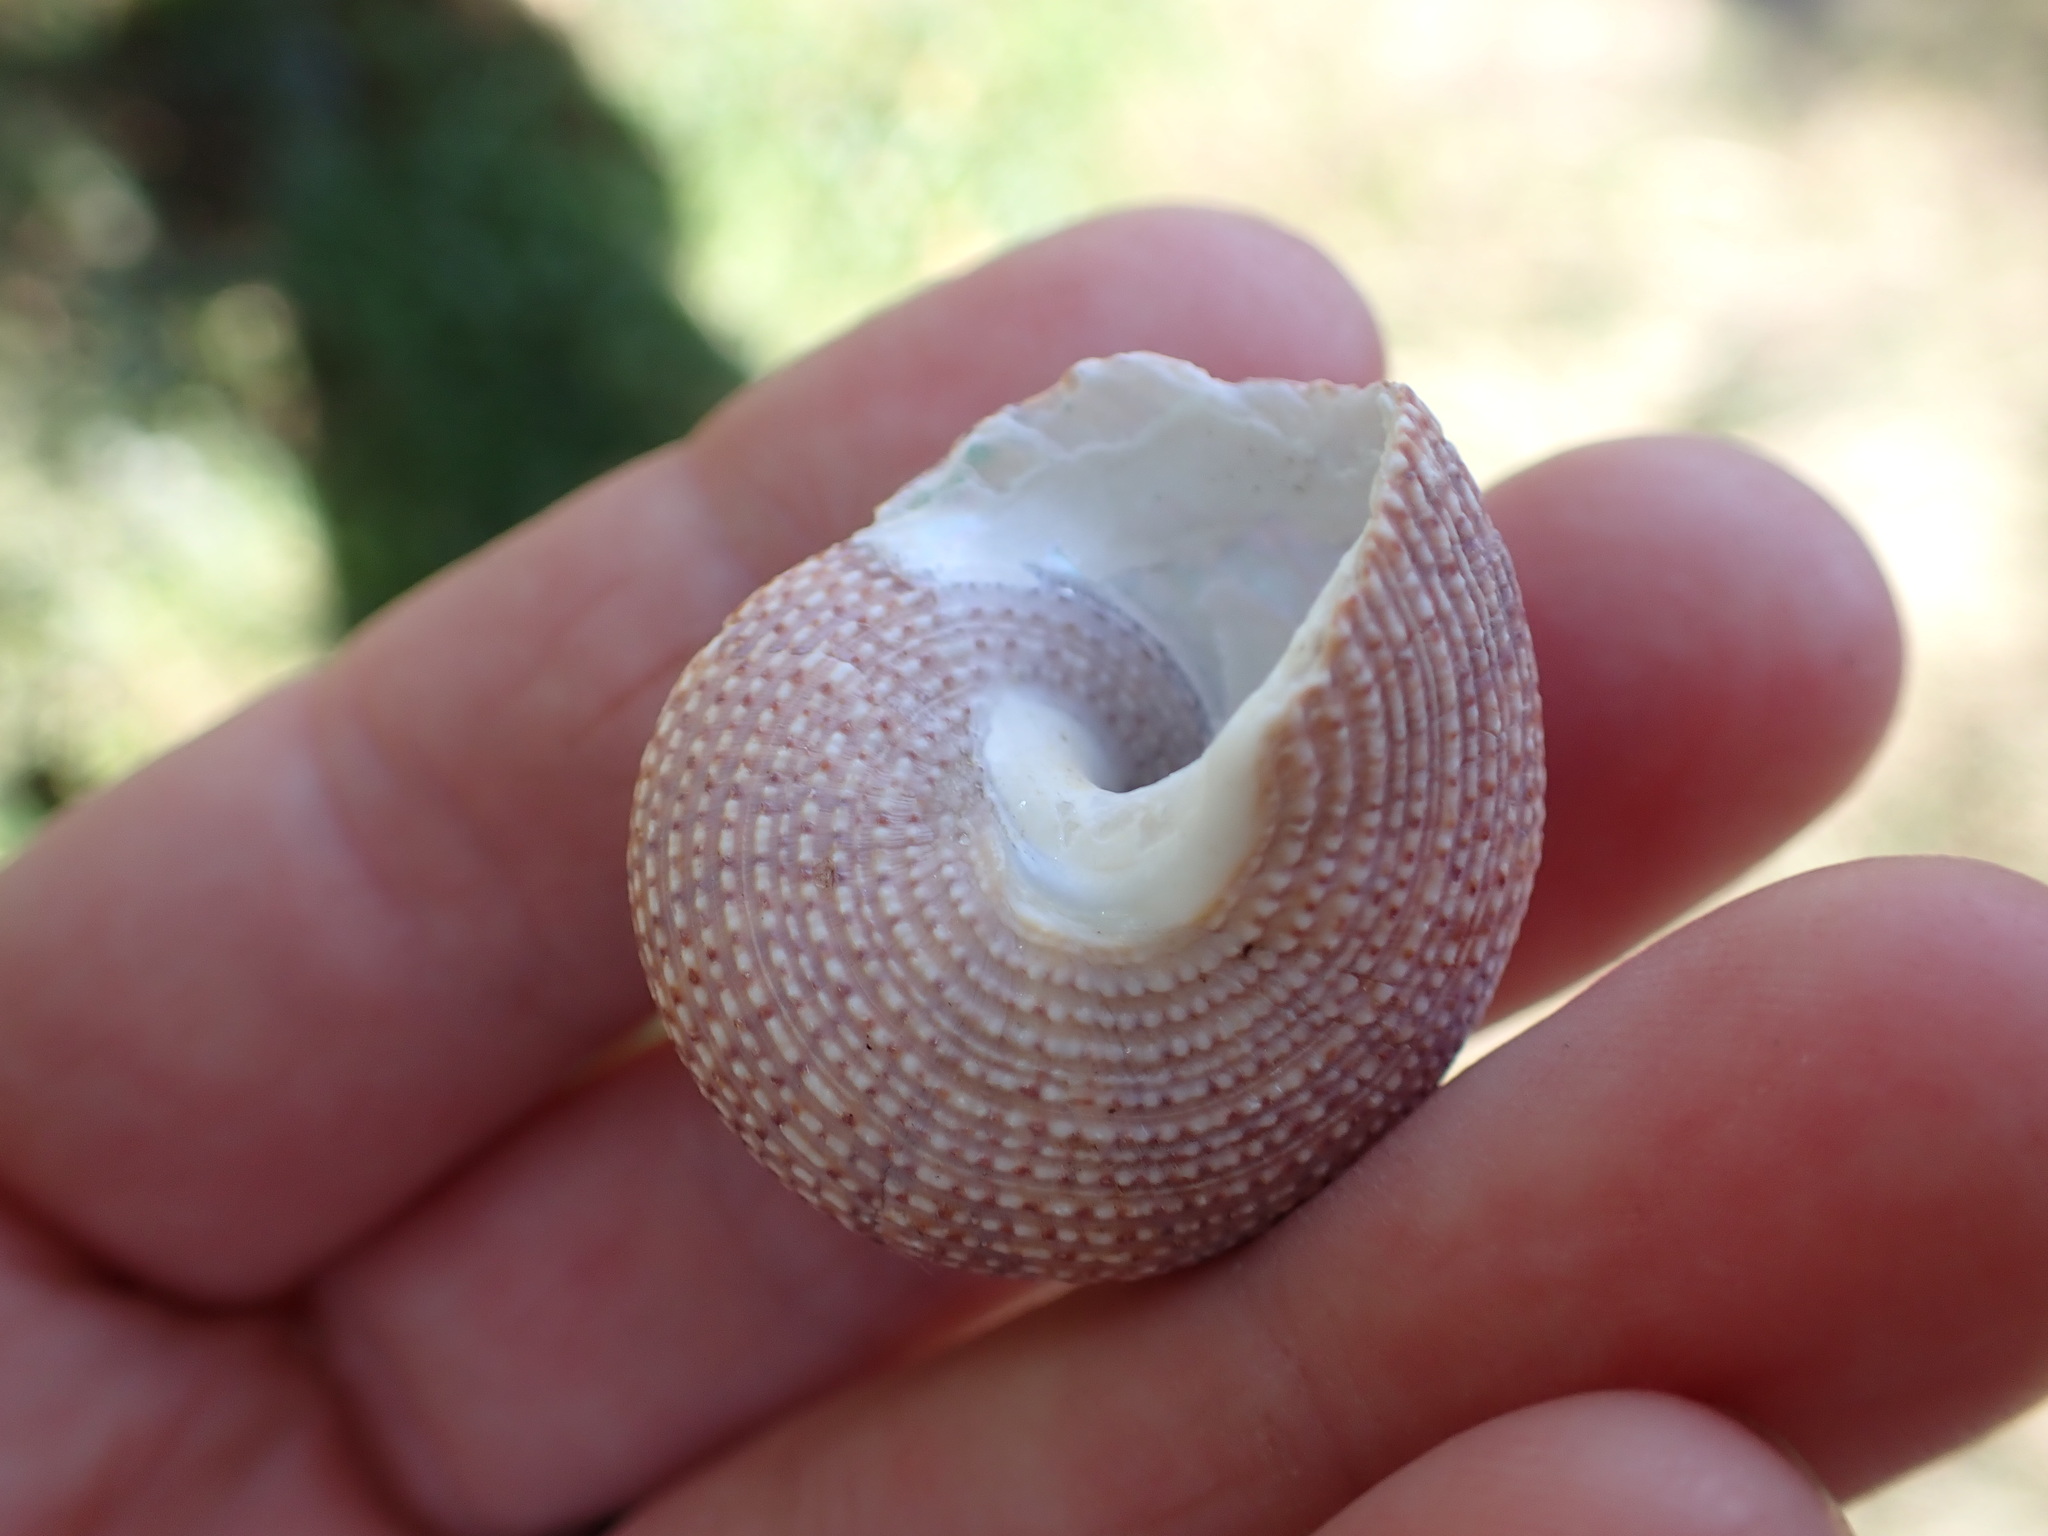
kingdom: Animalia
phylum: Mollusca
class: Gastropoda
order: Trochida
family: Calliostomatidae
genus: Maurea
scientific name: Maurea punctulata
